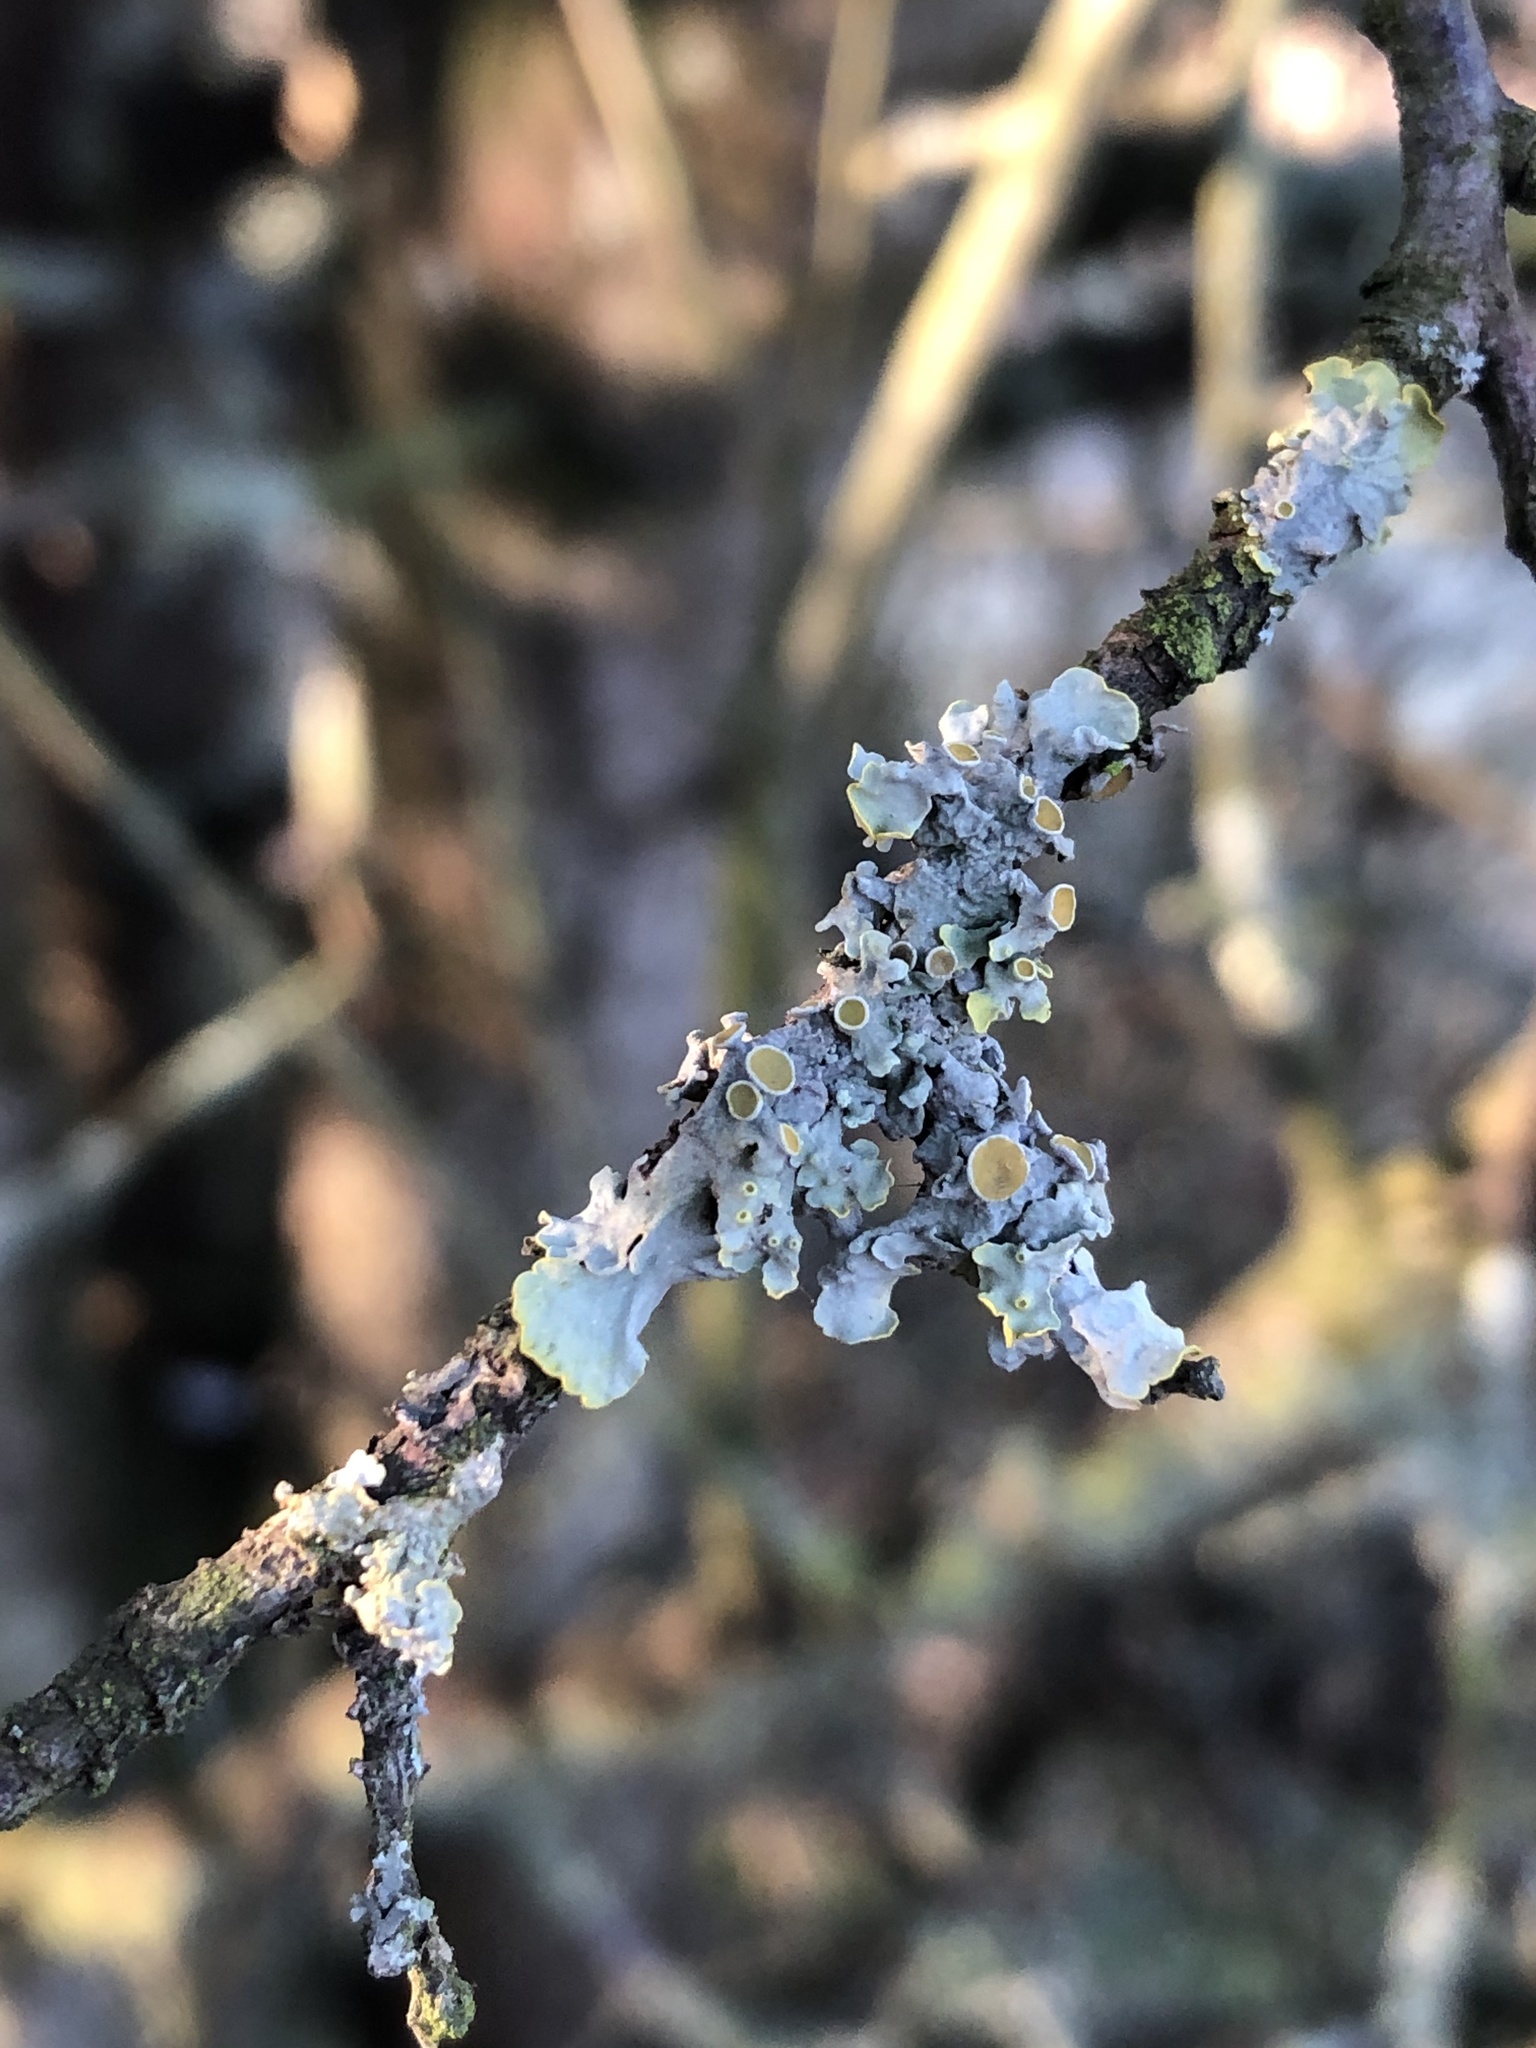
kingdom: Fungi
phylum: Ascomycota
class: Lecanoromycetes
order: Teloschistales
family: Teloschistaceae
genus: Xanthoria
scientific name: Xanthoria parietina
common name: Common orange lichen
